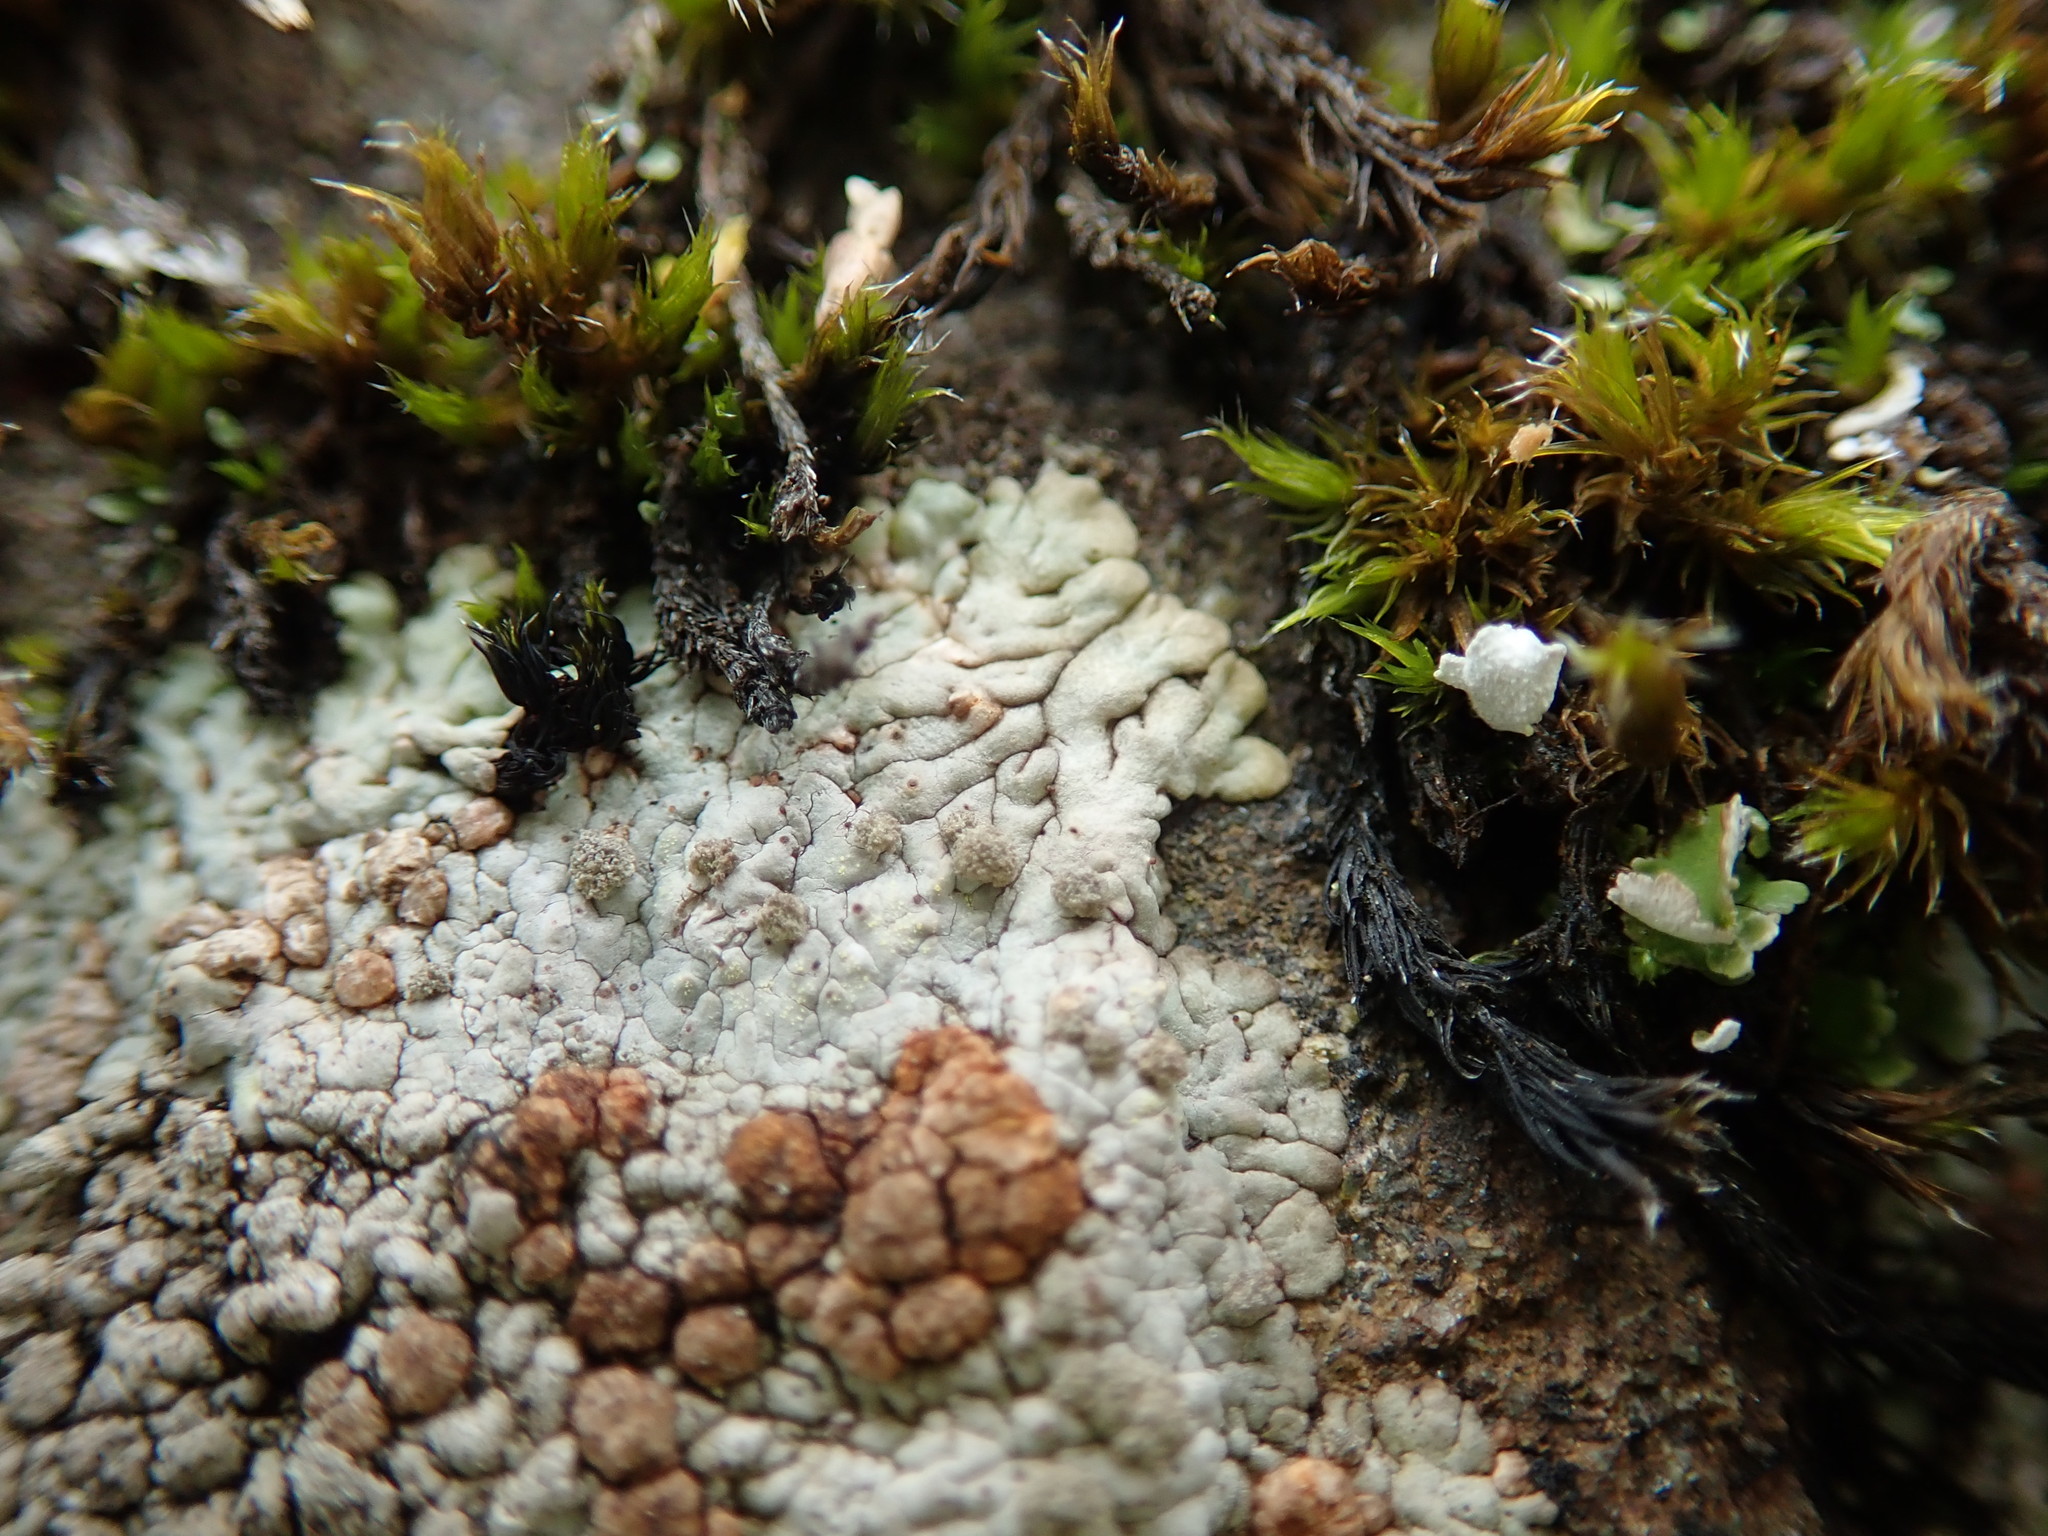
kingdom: Fungi
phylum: Ascomycota
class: Lecanoromycetes
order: Baeomycetales
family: Trapeliaceae
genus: Placopsis
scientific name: Placopsis gelida
